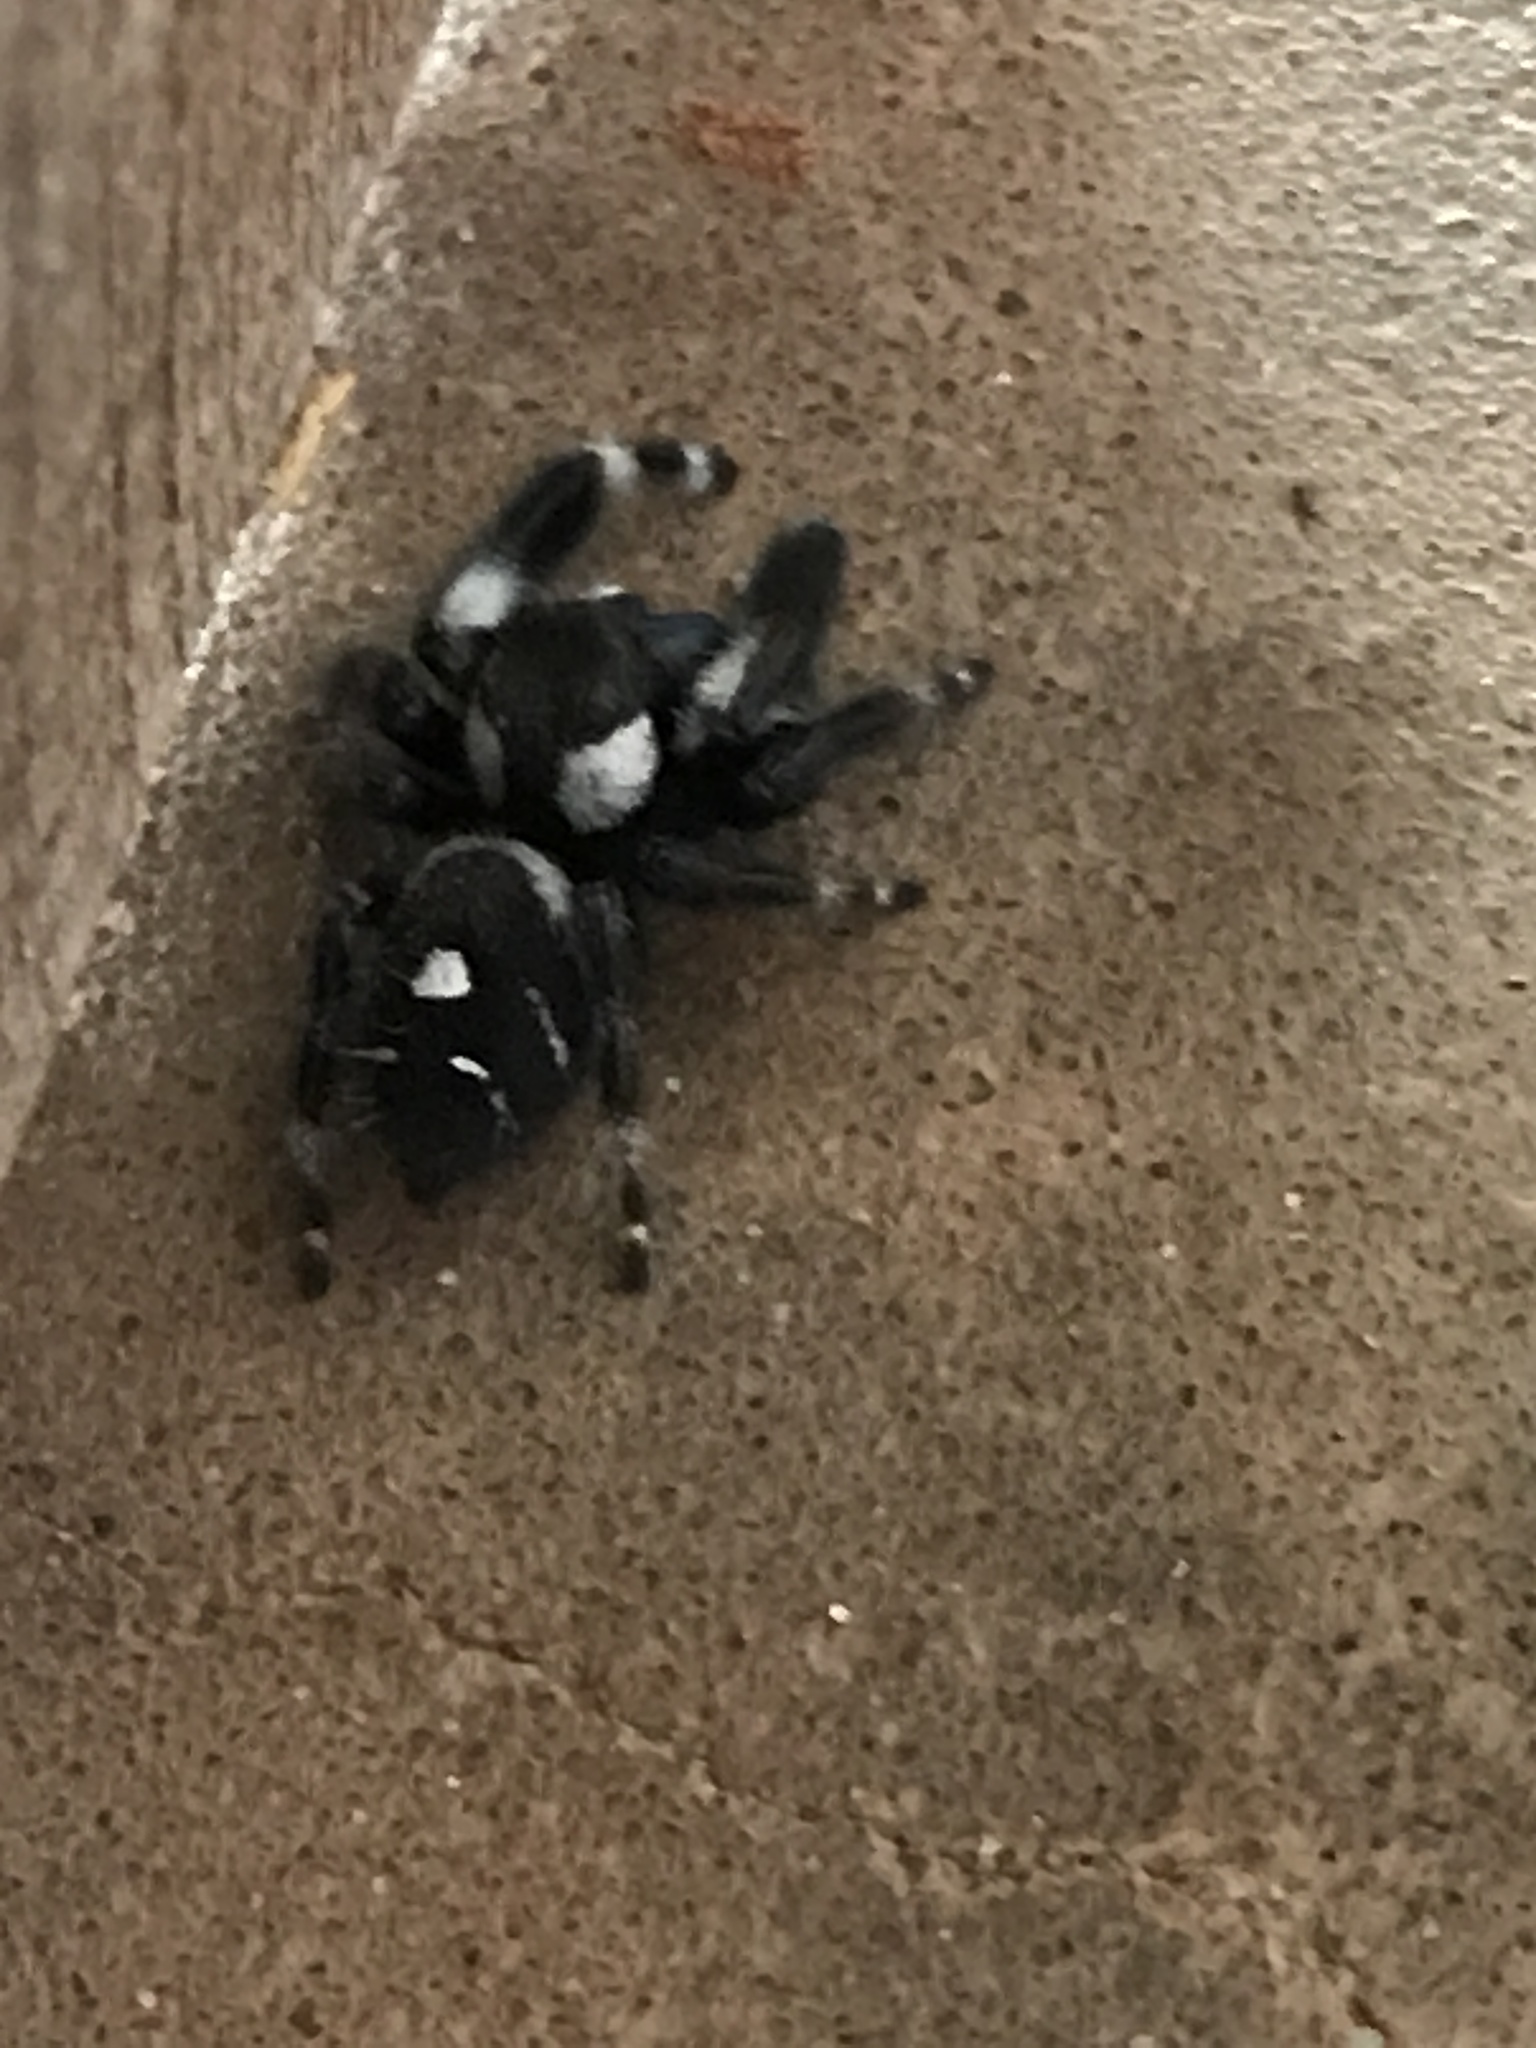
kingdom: Animalia
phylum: Arthropoda
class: Arachnida
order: Araneae
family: Salticidae
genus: Phidippus
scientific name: Phidippus audax
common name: Bold jumper
